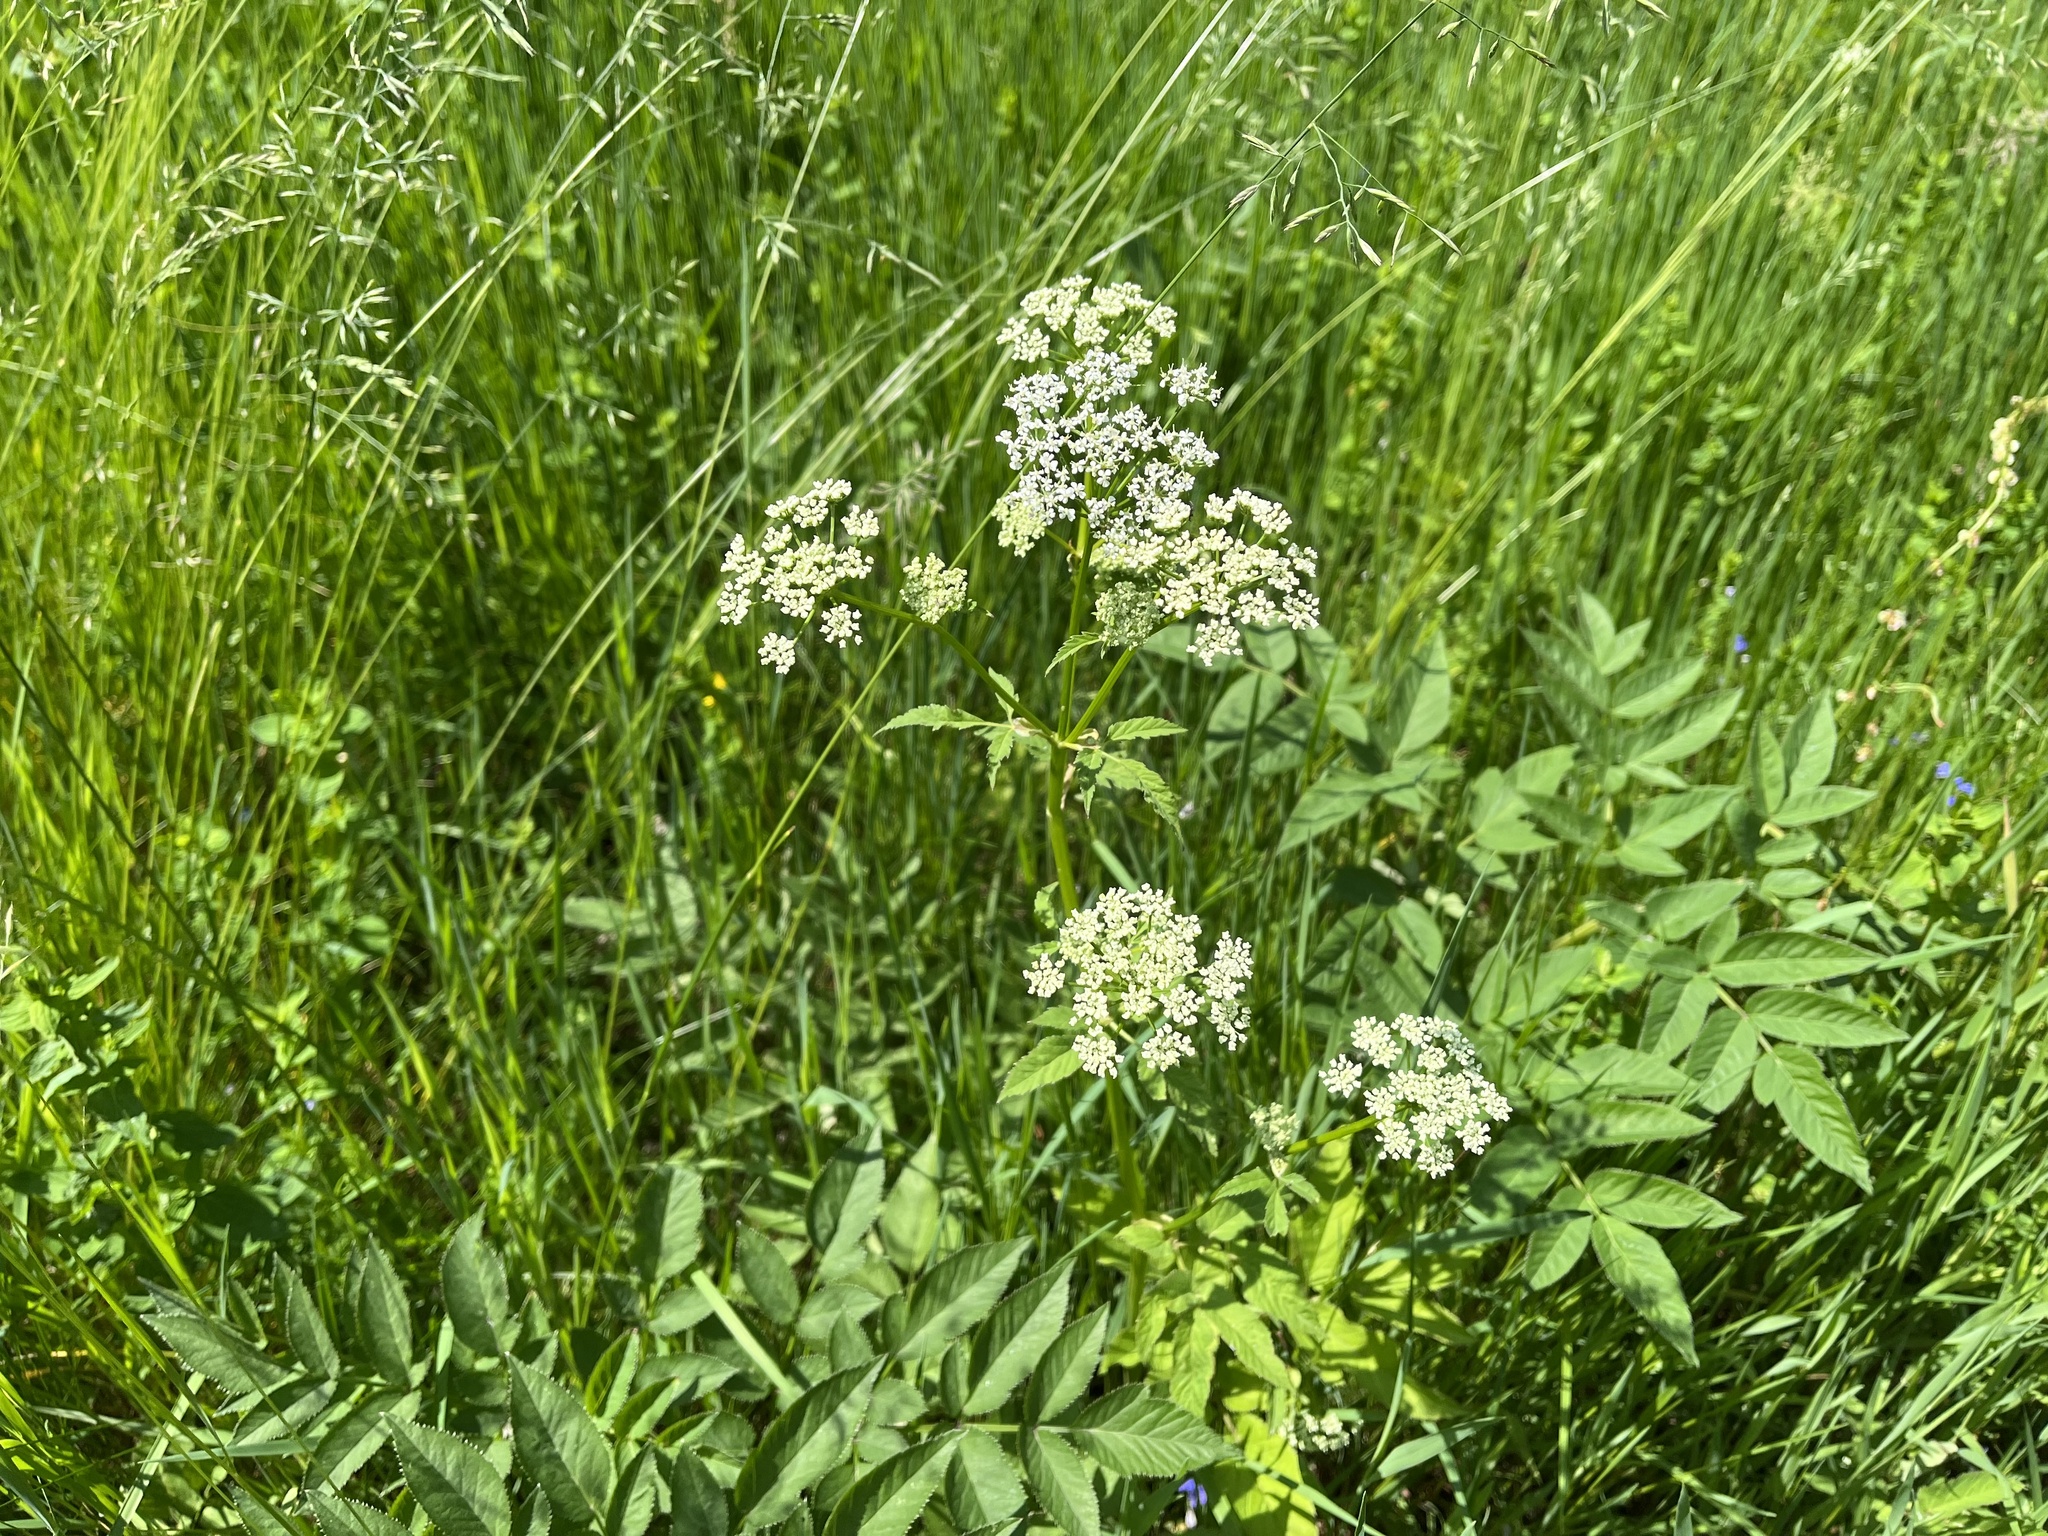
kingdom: Plantae
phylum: Tracheophyta
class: Magnoliopsida
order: Apiales
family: Apiaceae
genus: Angelica
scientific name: Angelica sylvestris
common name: Wild angelica
